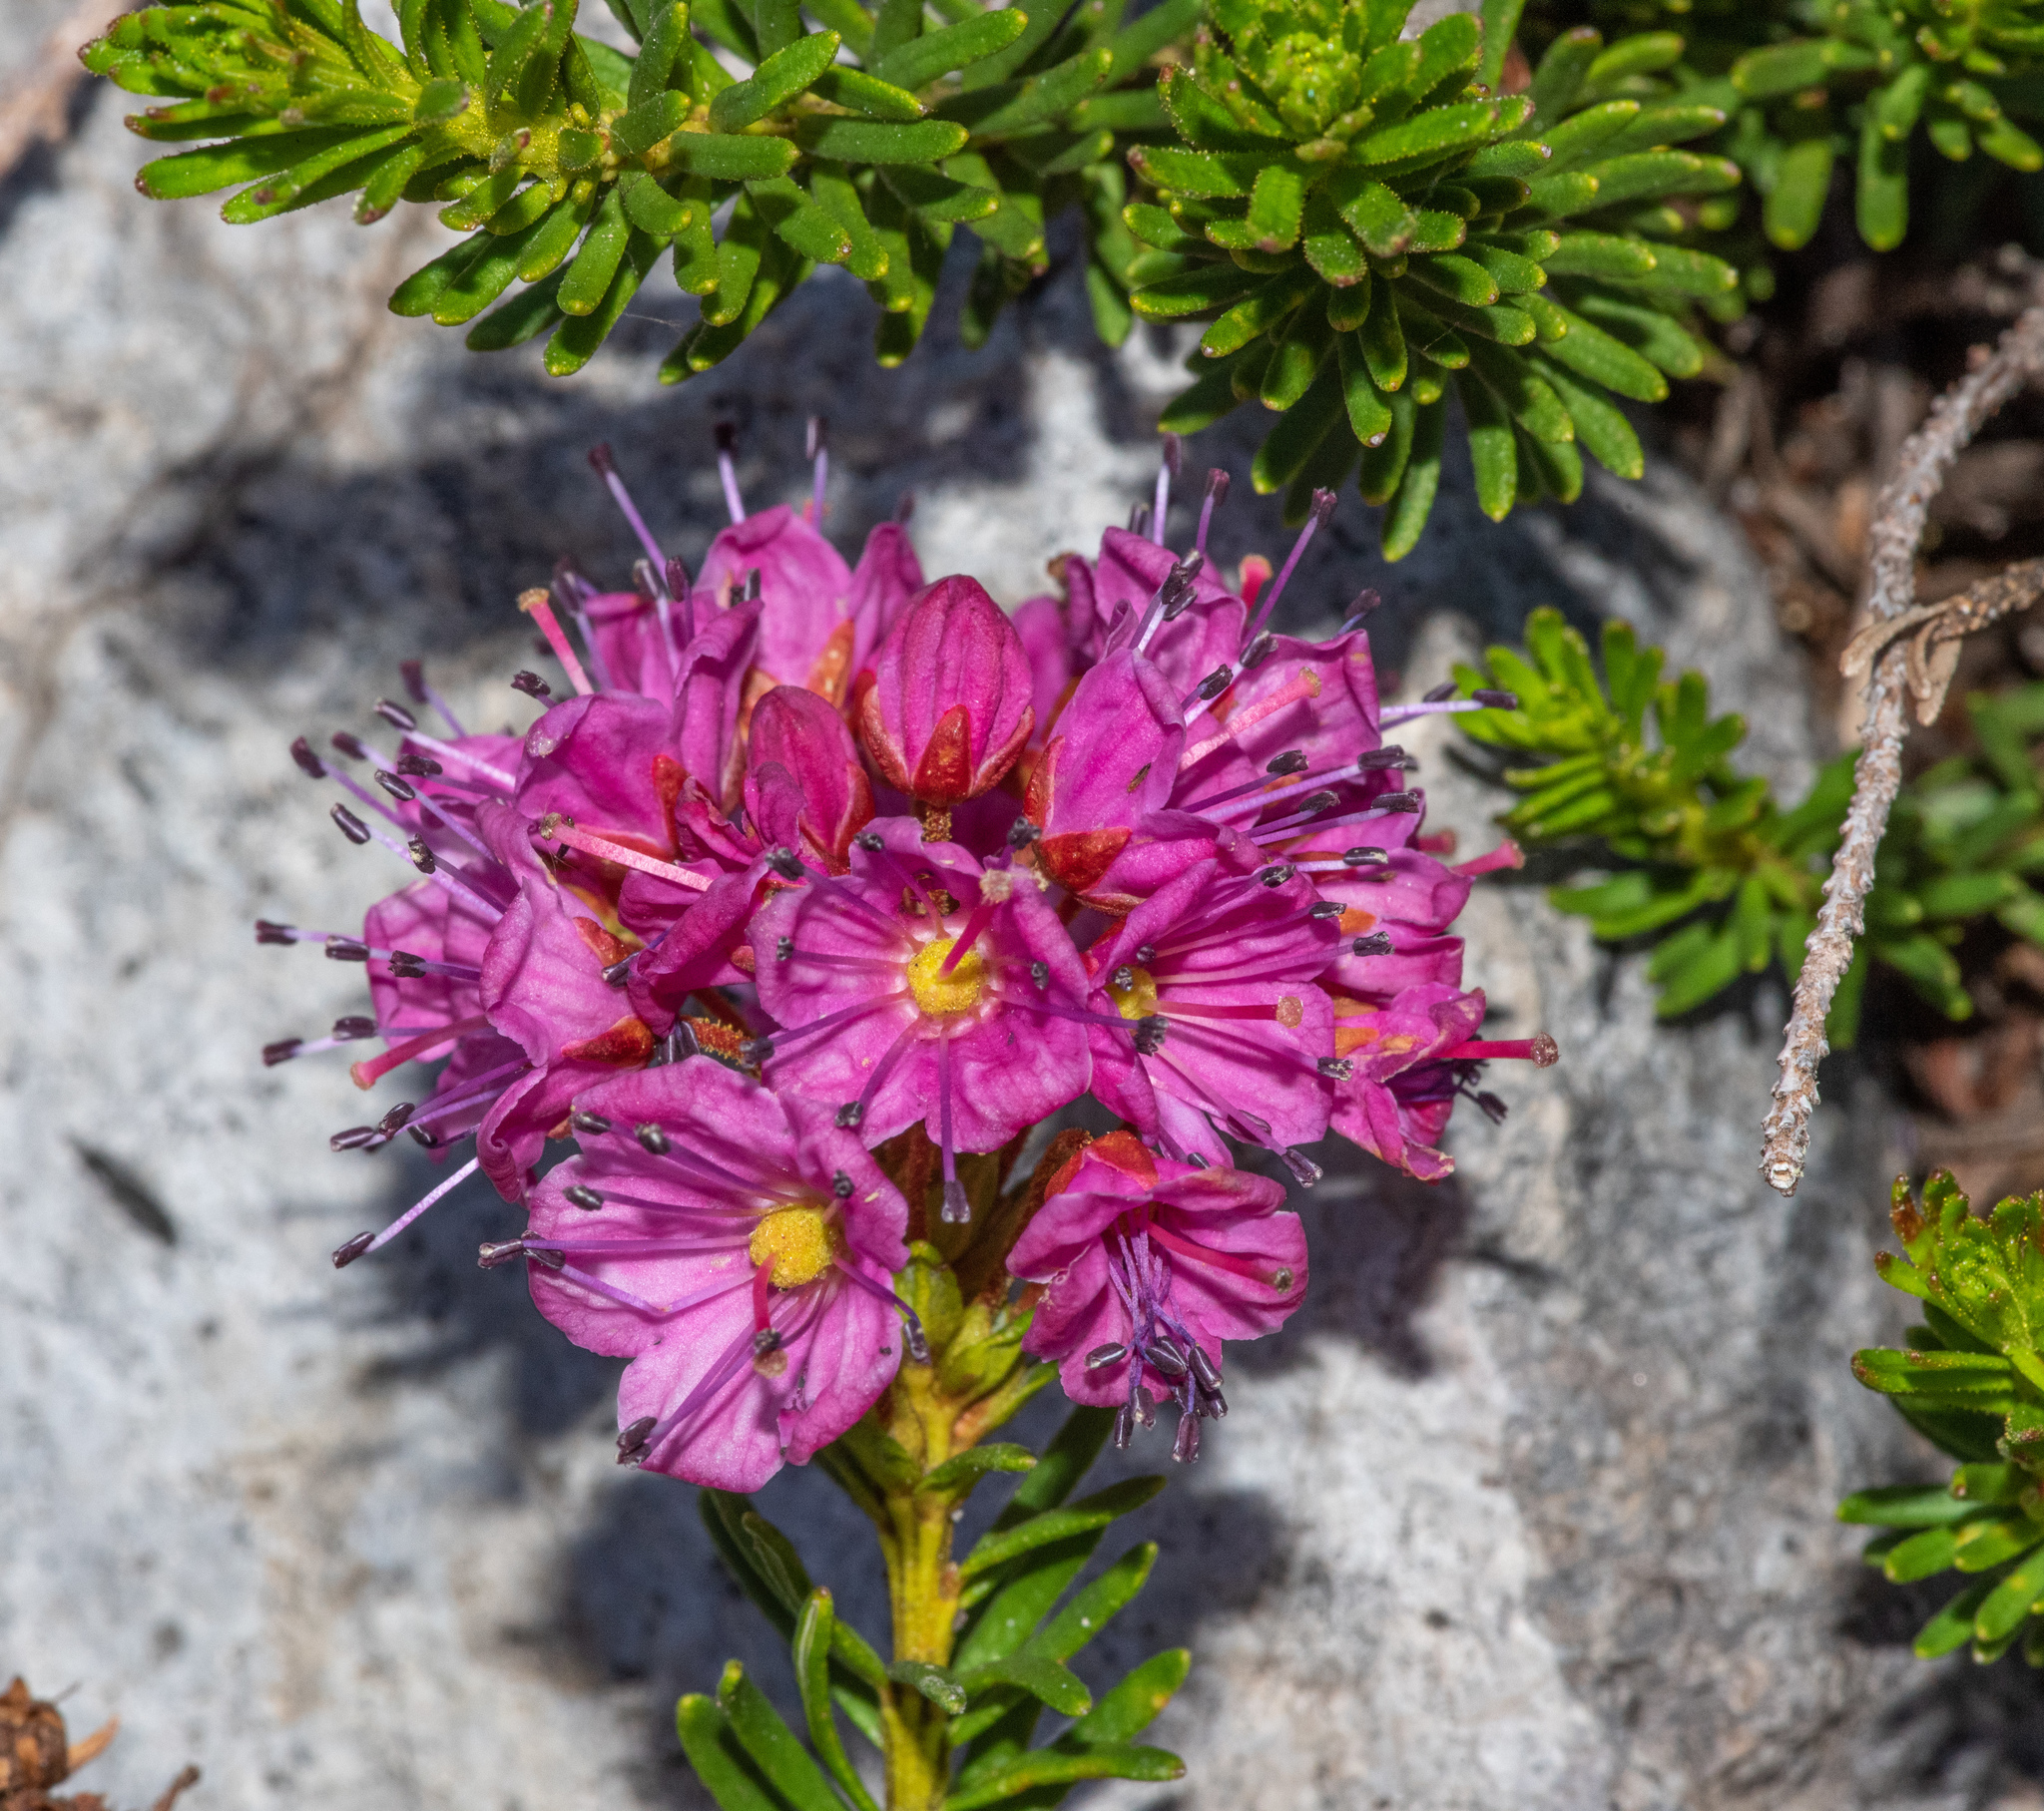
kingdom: Plantae
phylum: Tracheophyta
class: Magnoliopsida
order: Ericales
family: Ericaceae
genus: Phyllodoce
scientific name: Phyllodoce breweri
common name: Brewer's mountain-heather
